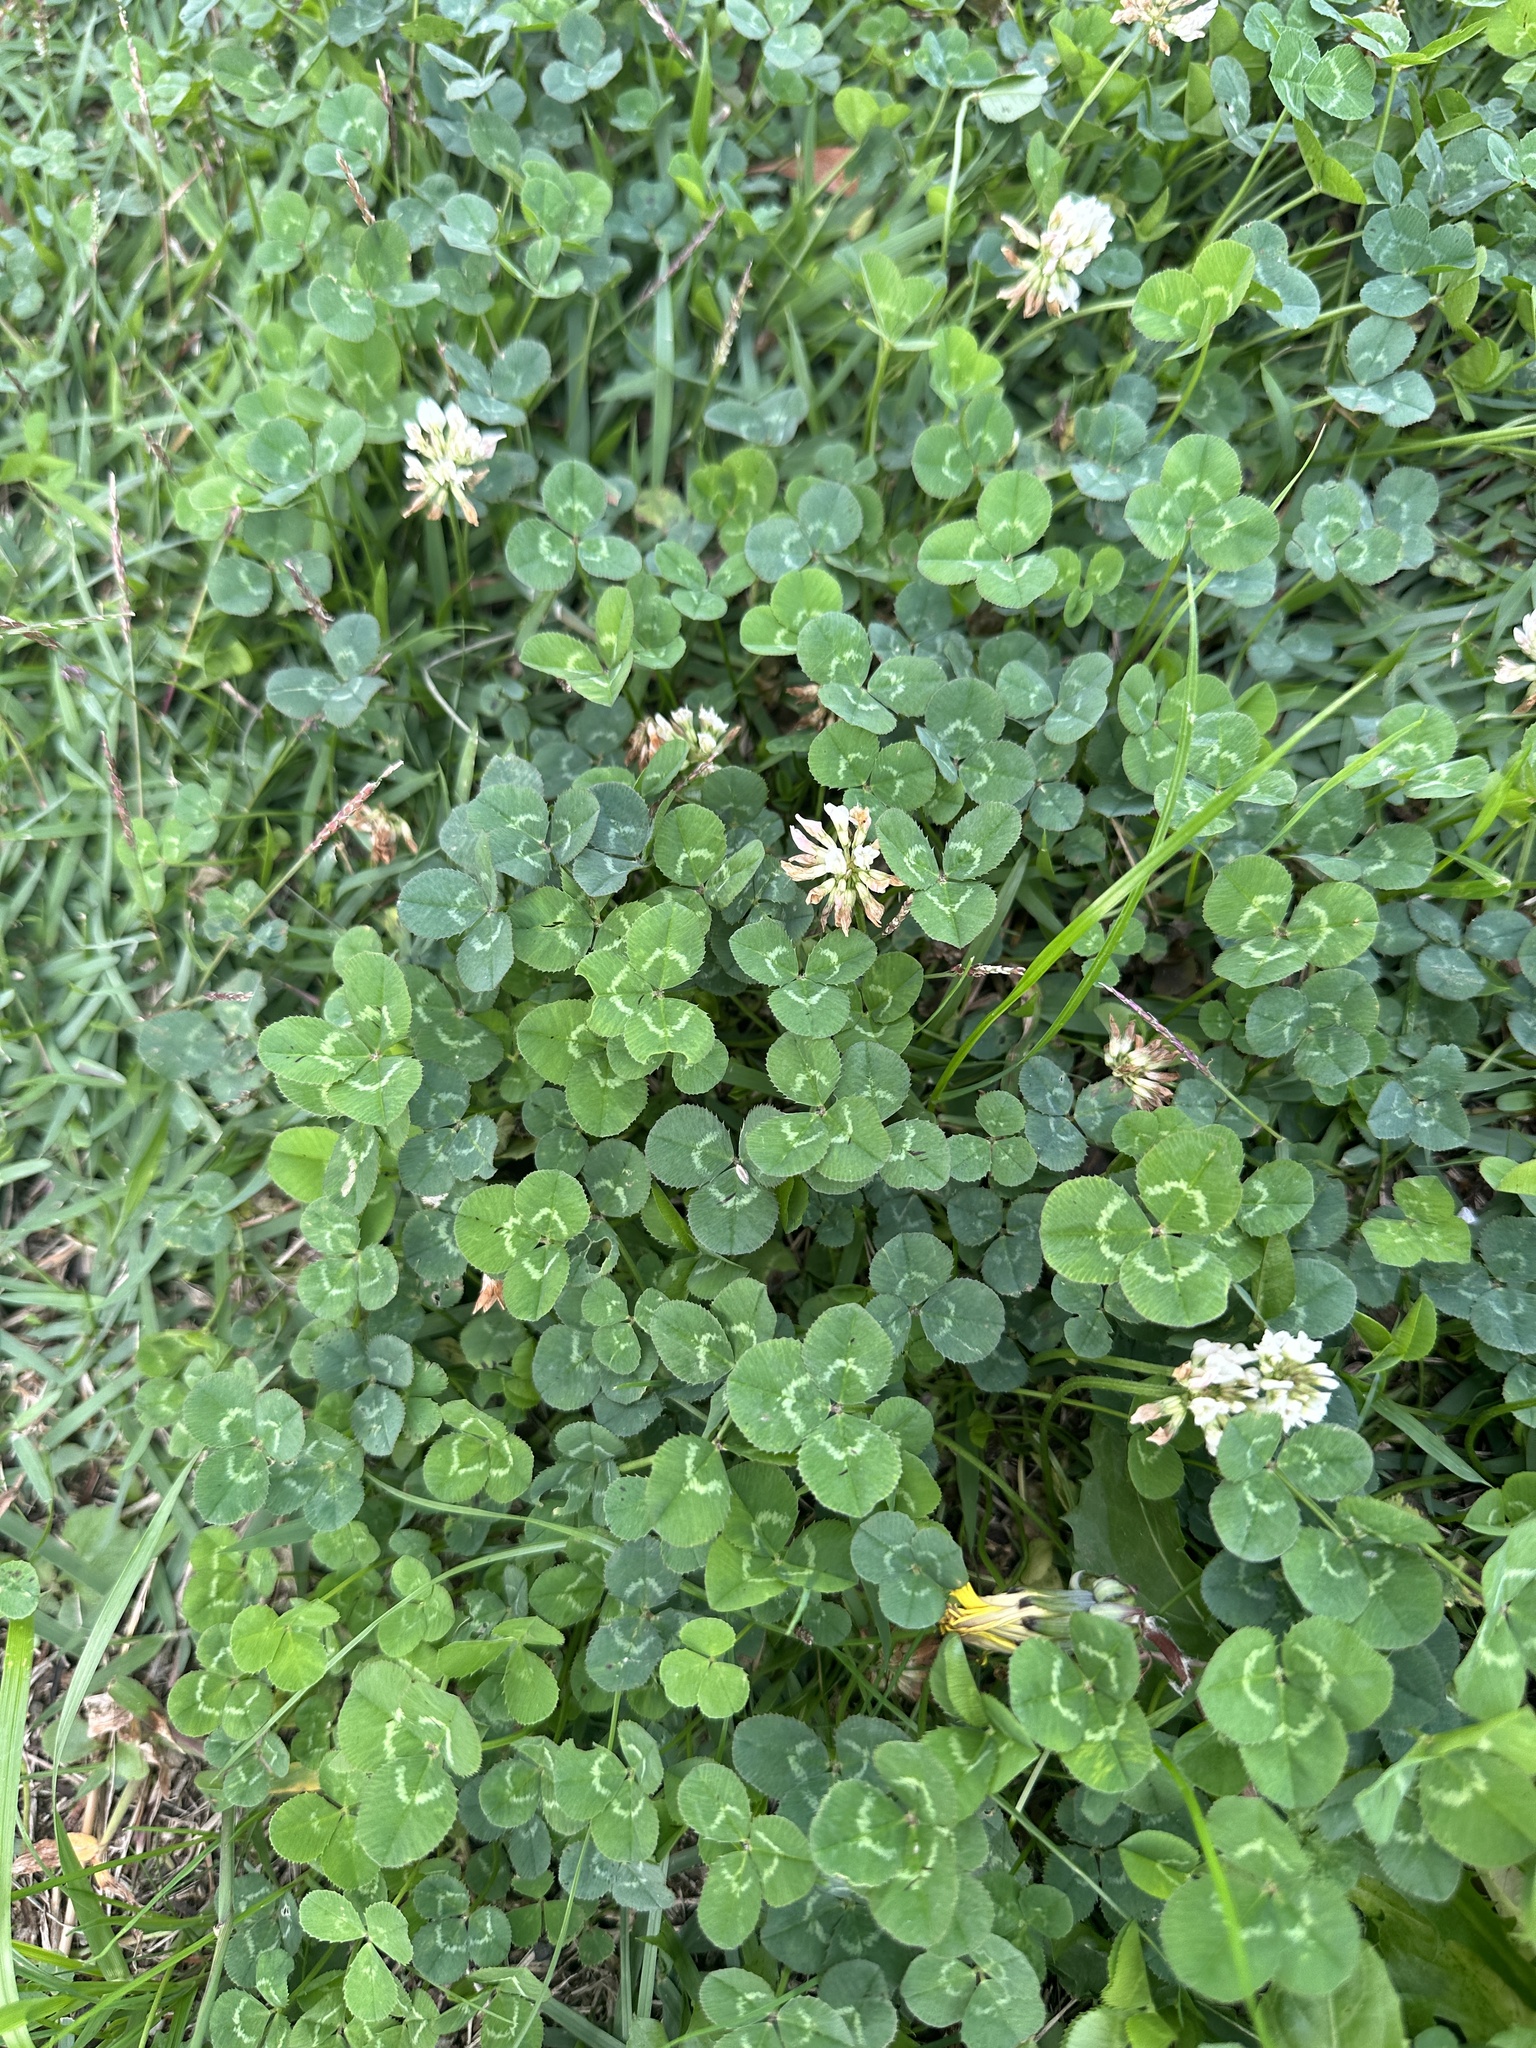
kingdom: Plantae
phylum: Tracheophyta
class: Magnoliopsida
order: Fabales
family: Fabaceae
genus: Trifolium
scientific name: Trifolium repens
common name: White clover
